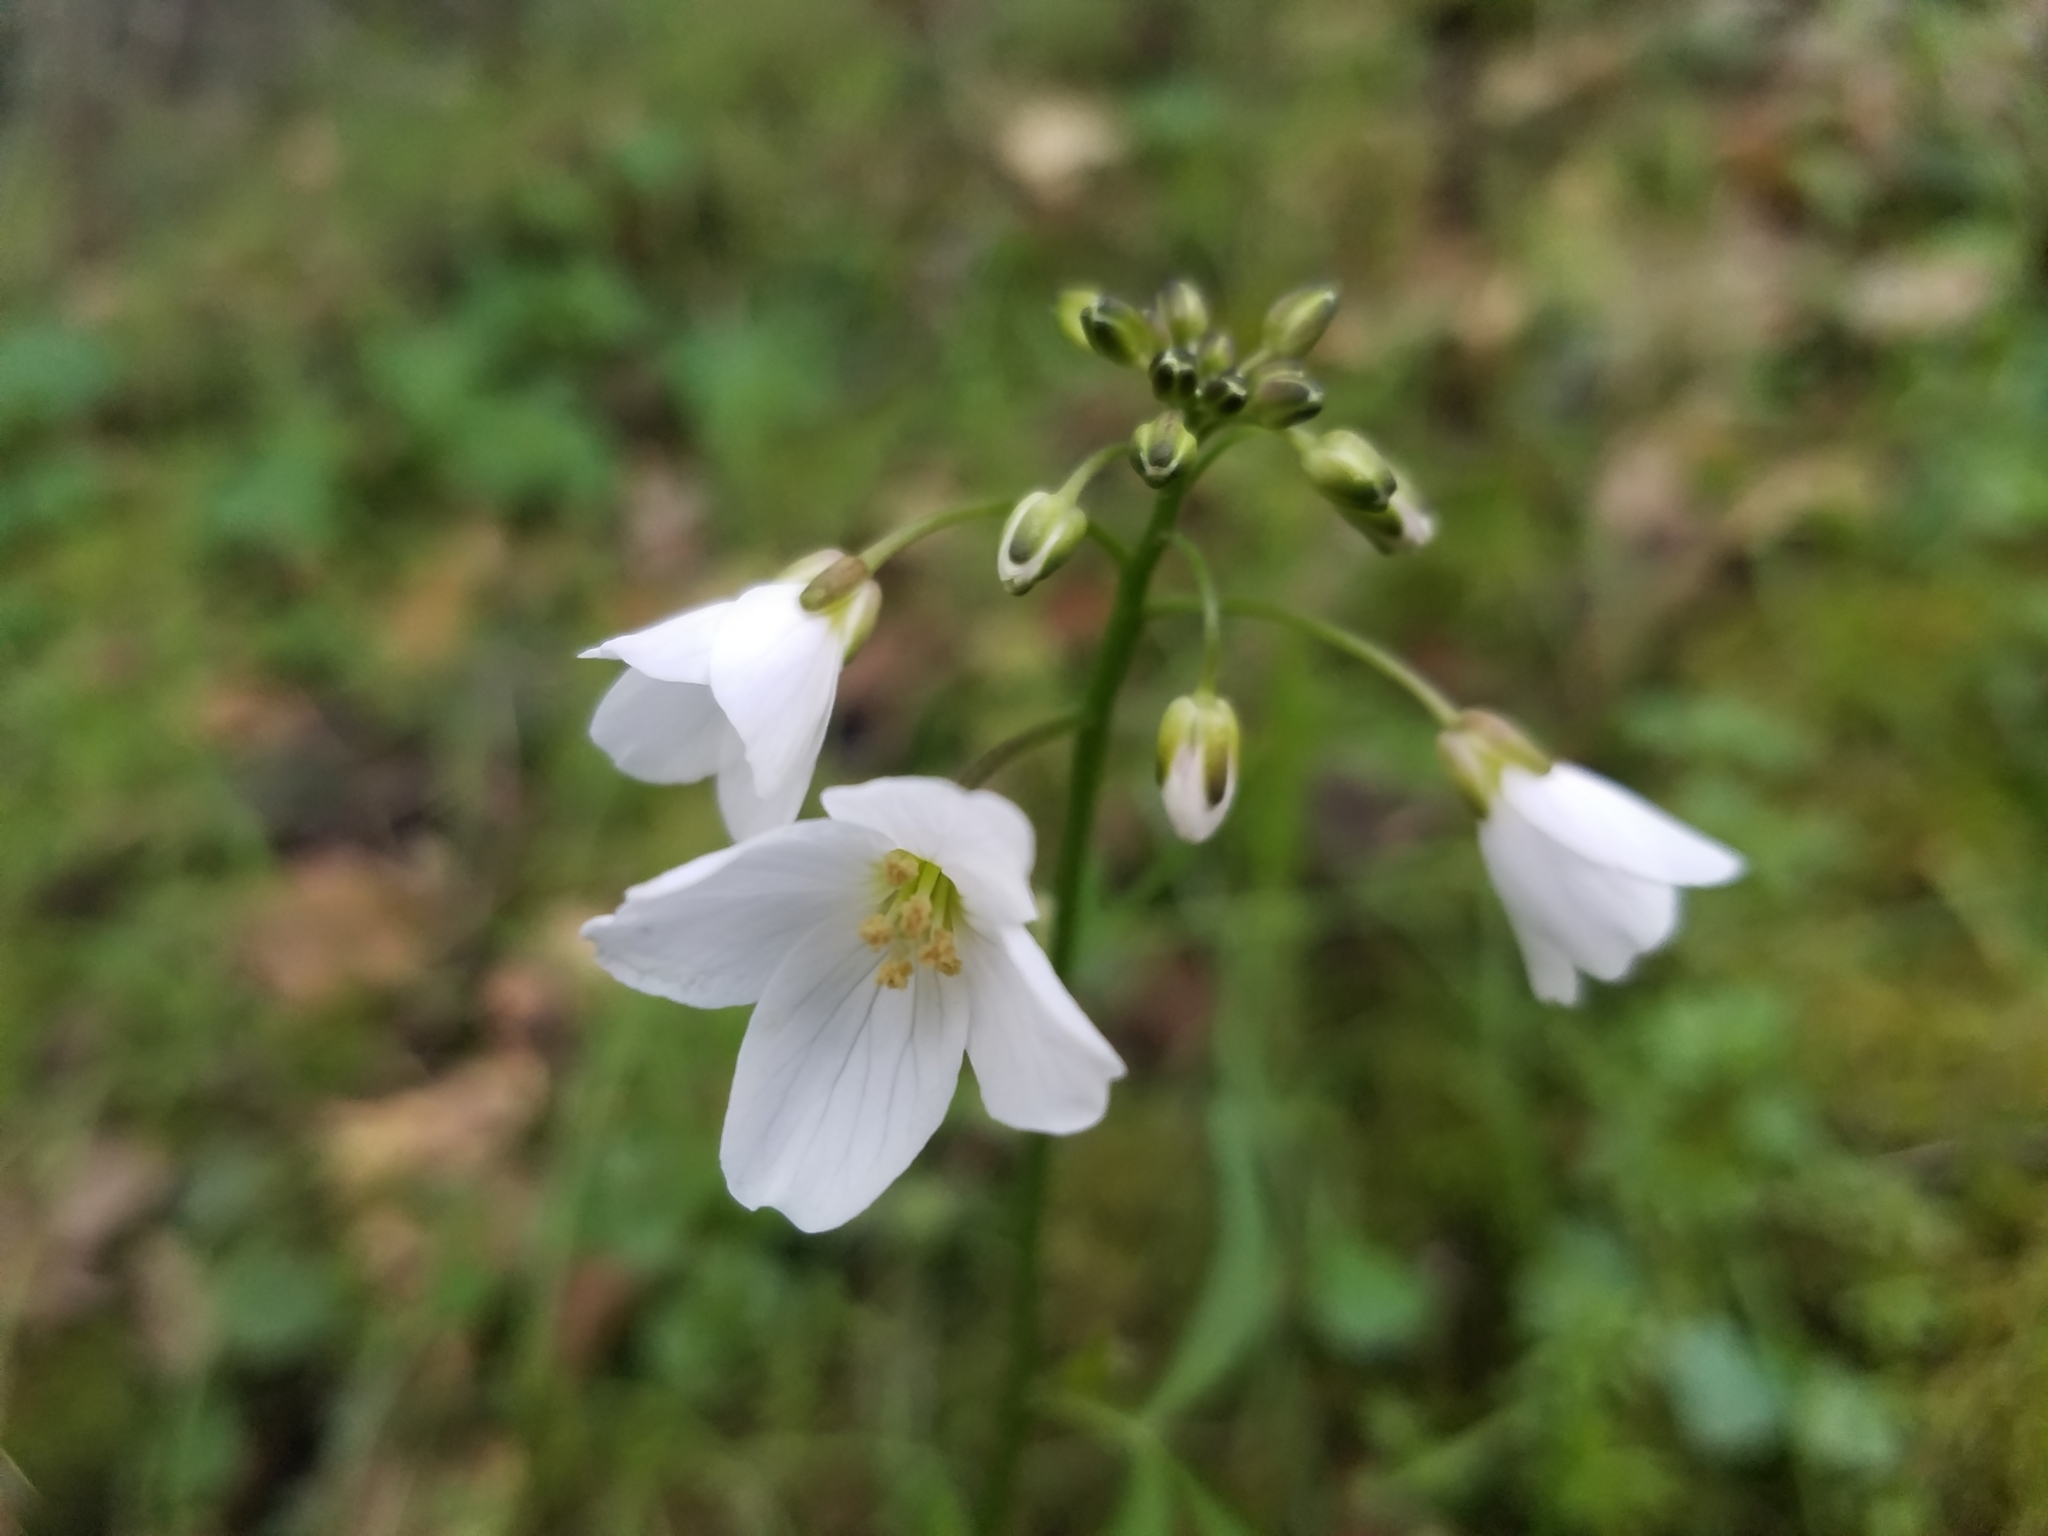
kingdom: Plantae
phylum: Tracheophyta
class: Magnoliopsida
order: Brassicales
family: Brassicaceae
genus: Cardamine
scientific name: Cardamine californica
